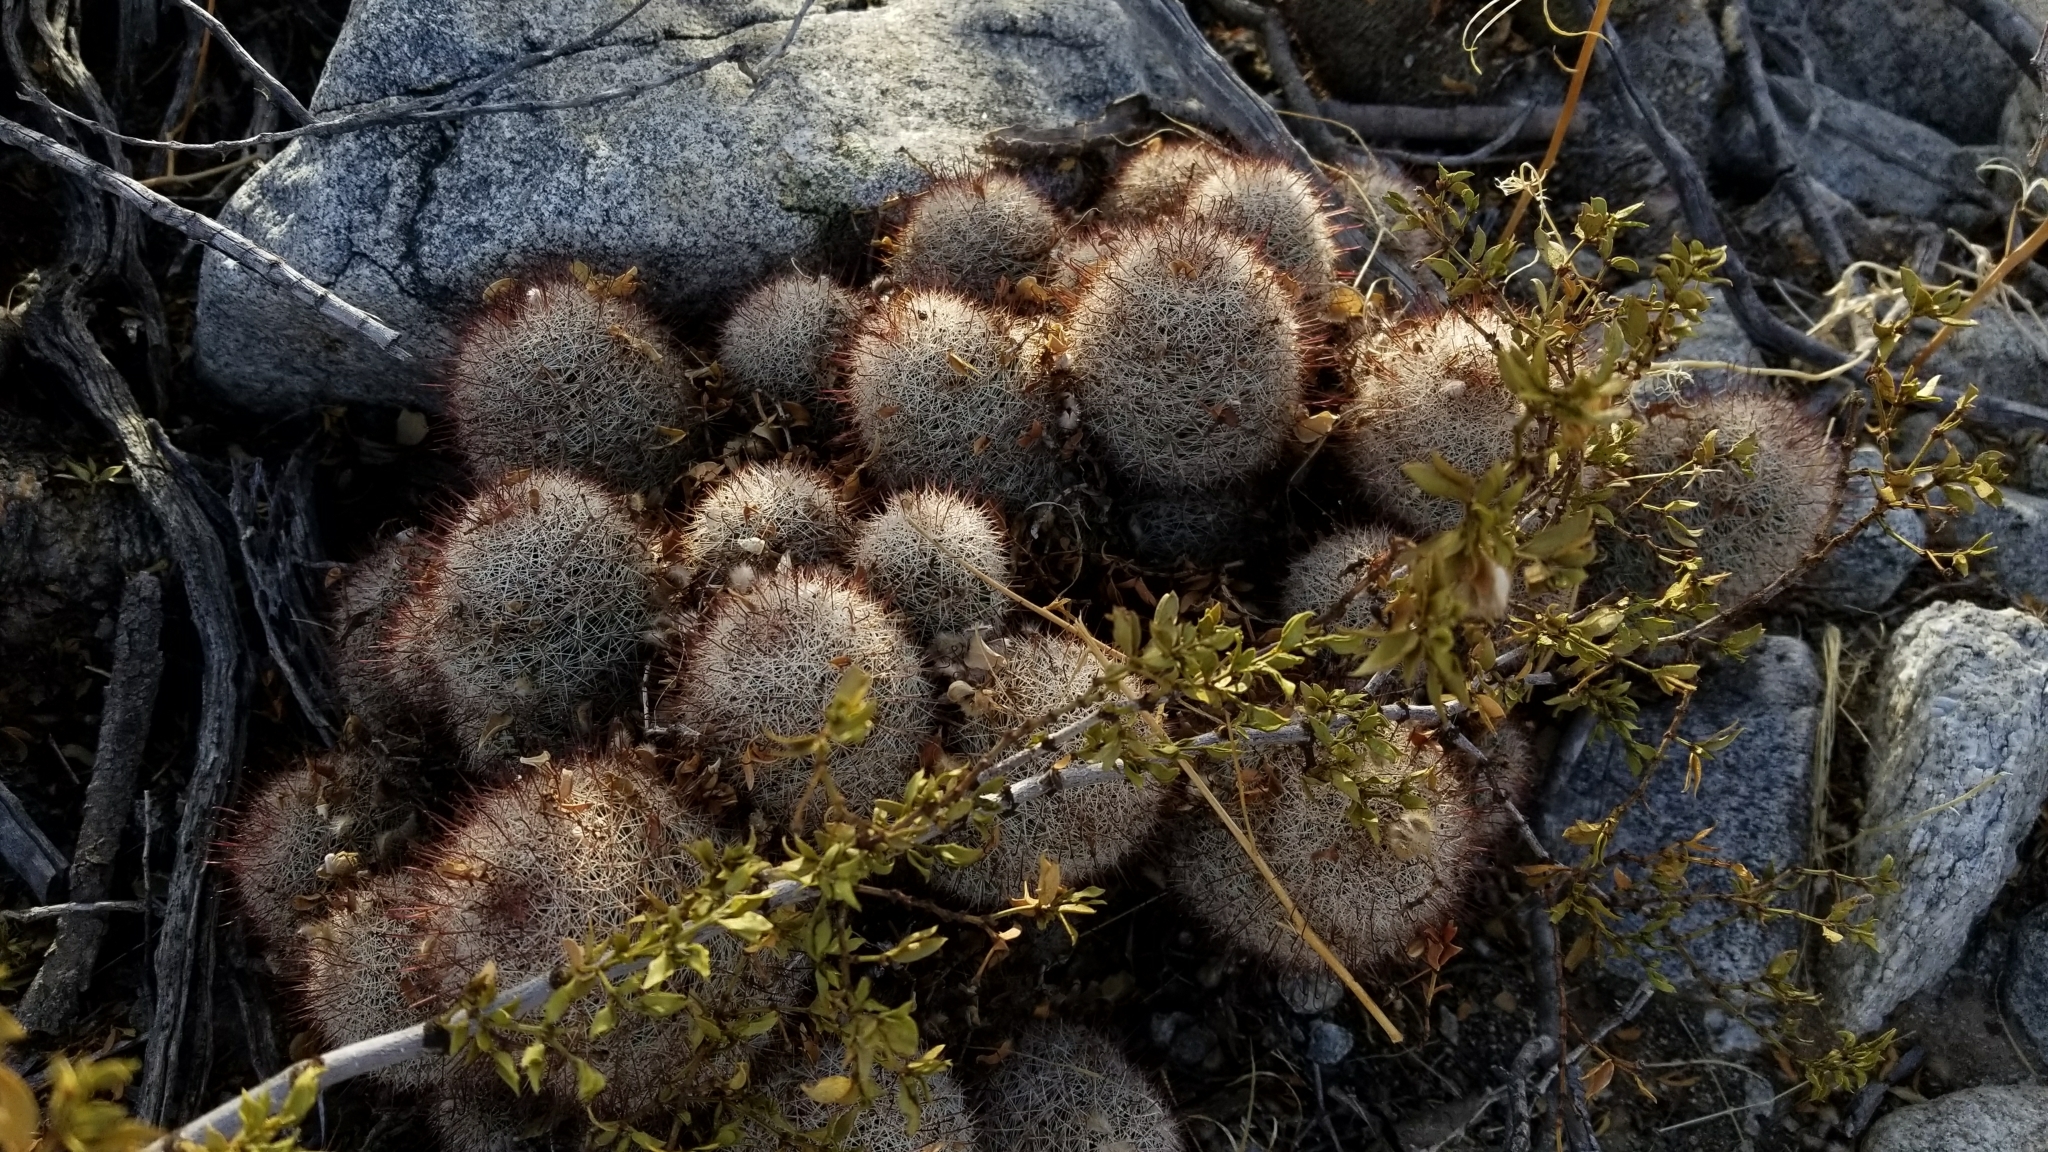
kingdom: Plantae
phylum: Tracheophyta
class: Magnoliopsida
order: Caryophyllales
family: Cactaceae
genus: Cochemiea
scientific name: Cochemiea dioica
